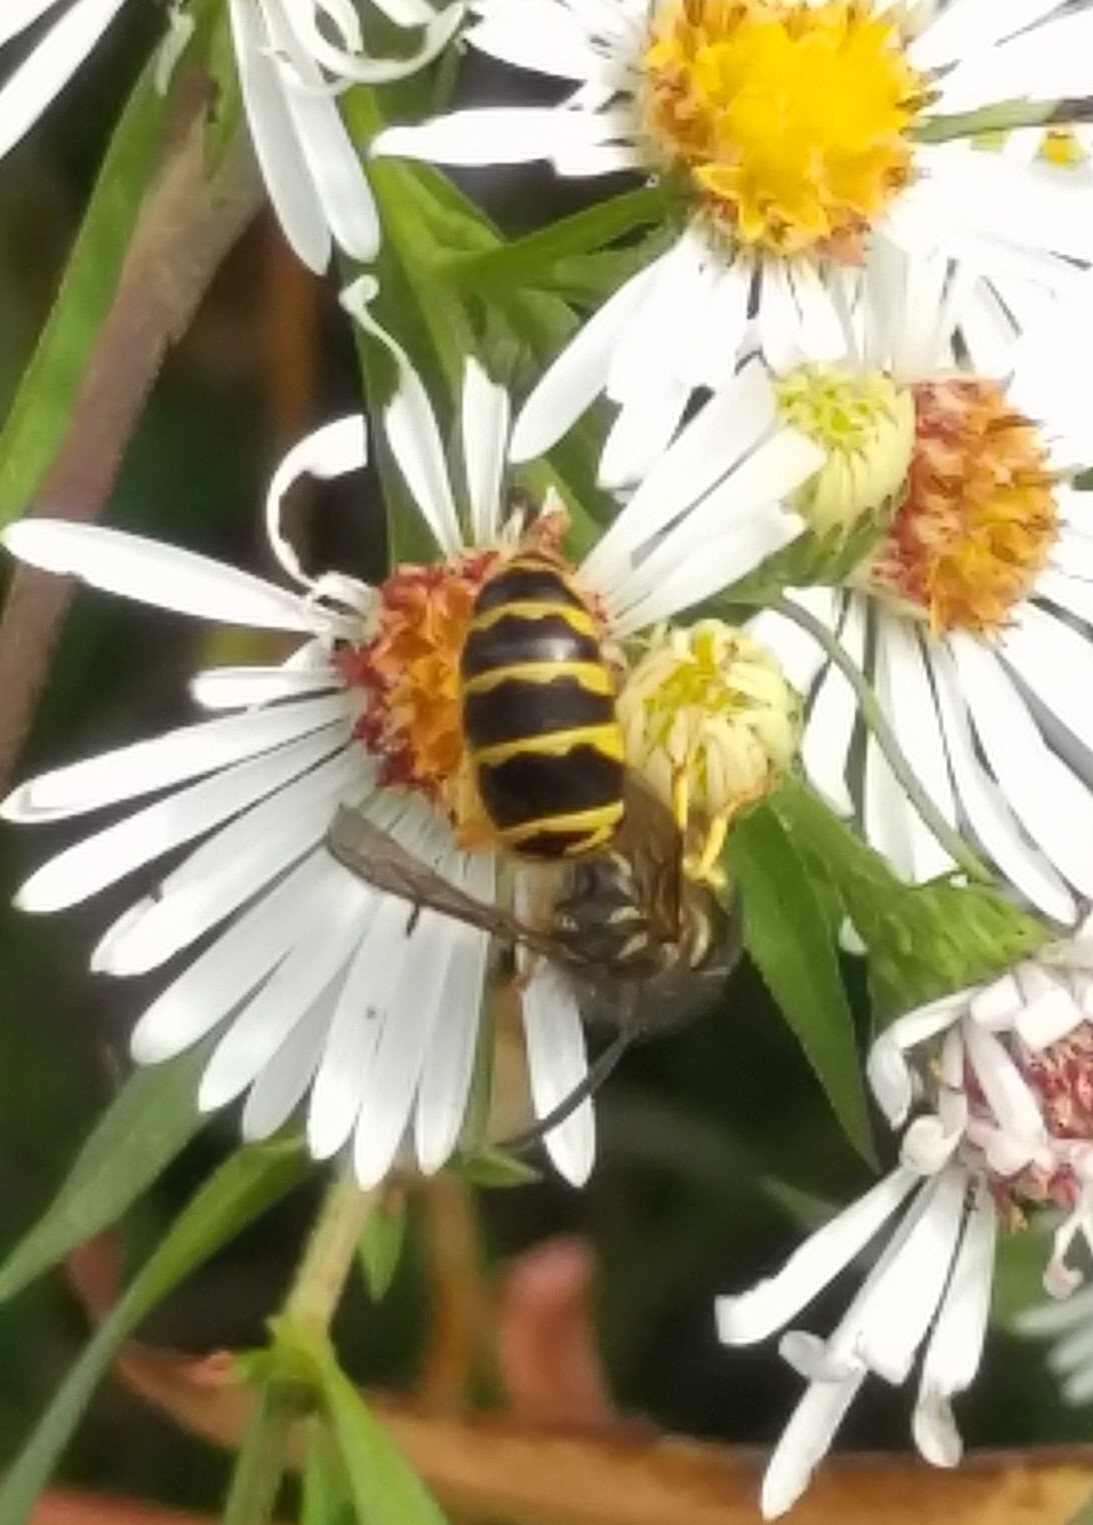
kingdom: Animalia
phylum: Arthropoda
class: Insecta
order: Hymenoptera
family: Vespidae
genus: Vespula
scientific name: Vespula maculifrons
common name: Eastern yellowjacket
